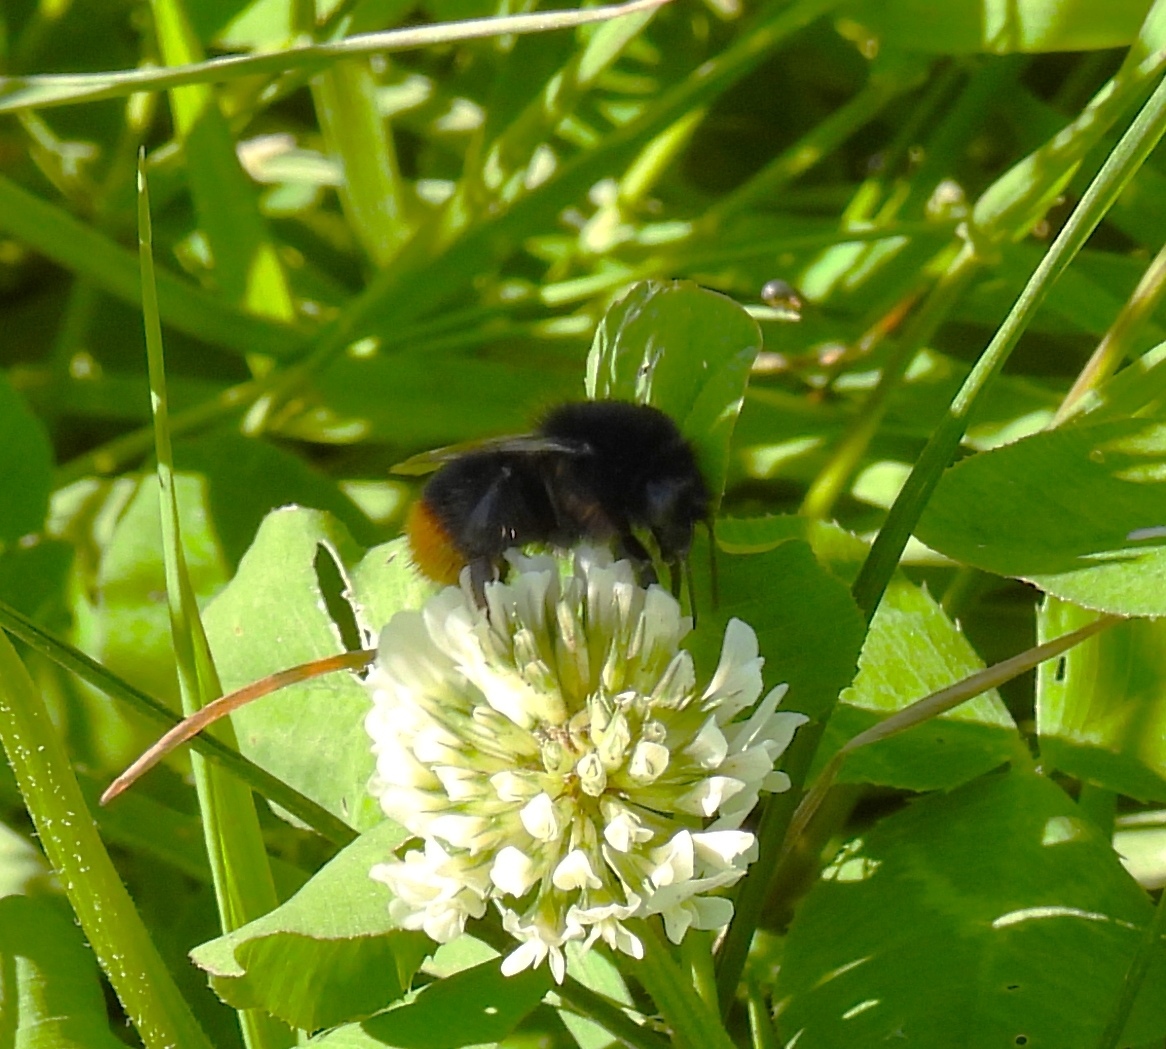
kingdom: Animalia
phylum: Arthropoda
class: Insecta
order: Hymenoptera
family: Apidae
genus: Bombus
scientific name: Bombus lapidarius
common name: Large red-tailed humble-bee
